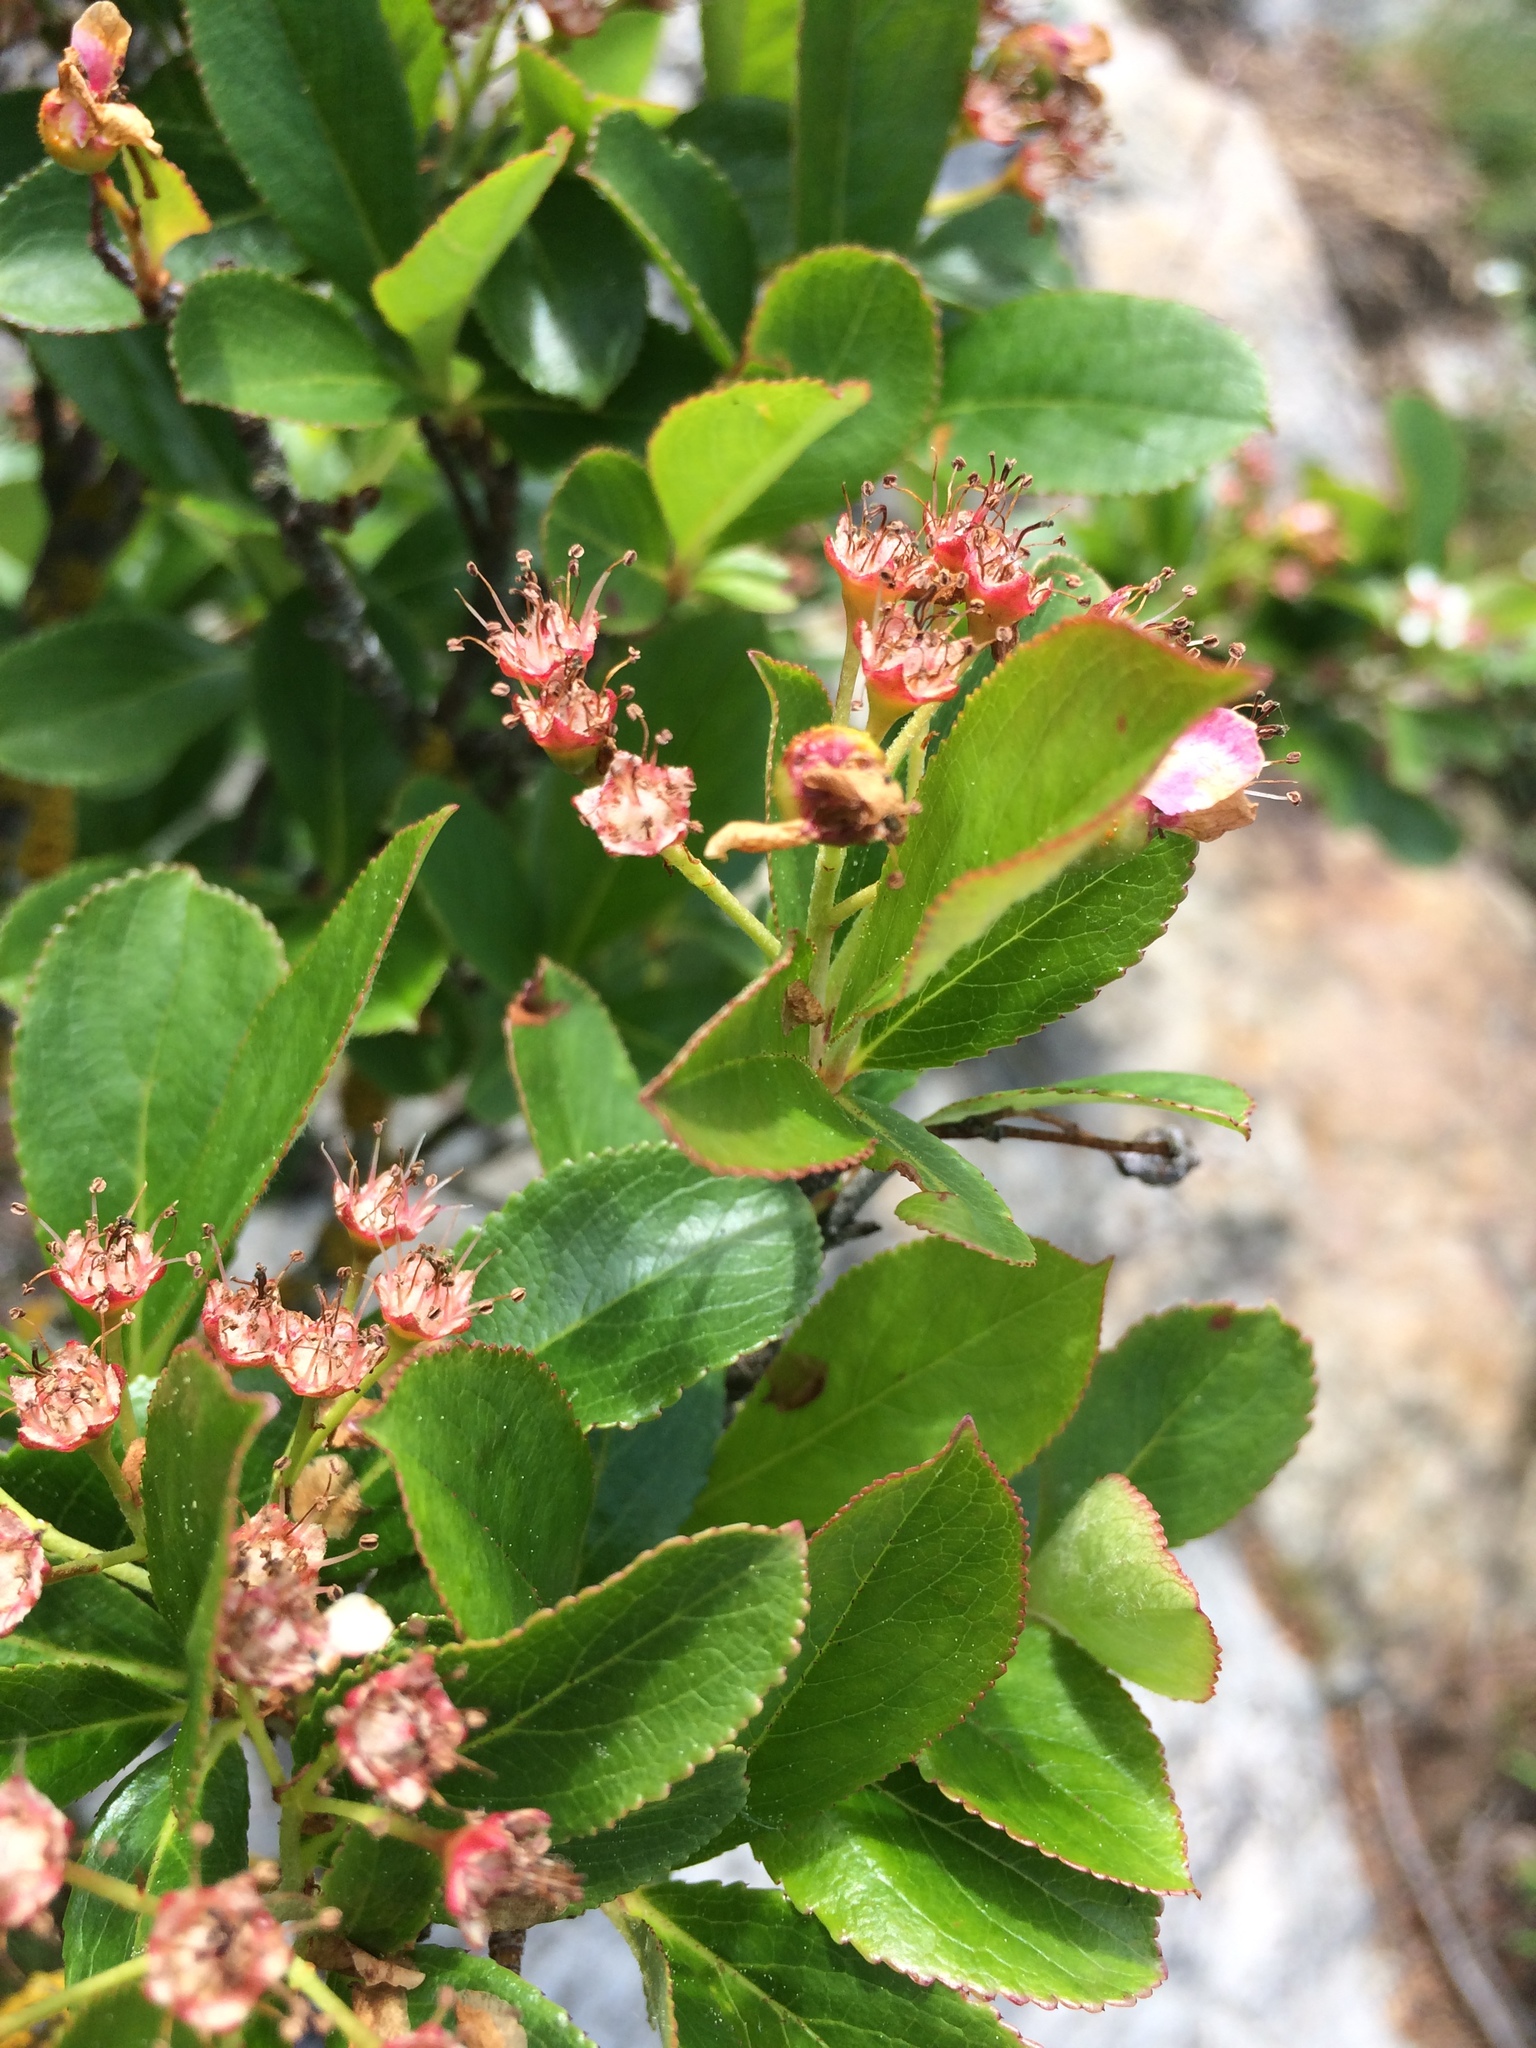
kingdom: Plantae
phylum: Tracheophyta
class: Magnoliopsida
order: Rosales
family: Rosaceae
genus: Aronia
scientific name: Aronia melanocarpa
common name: Black chokeberry
